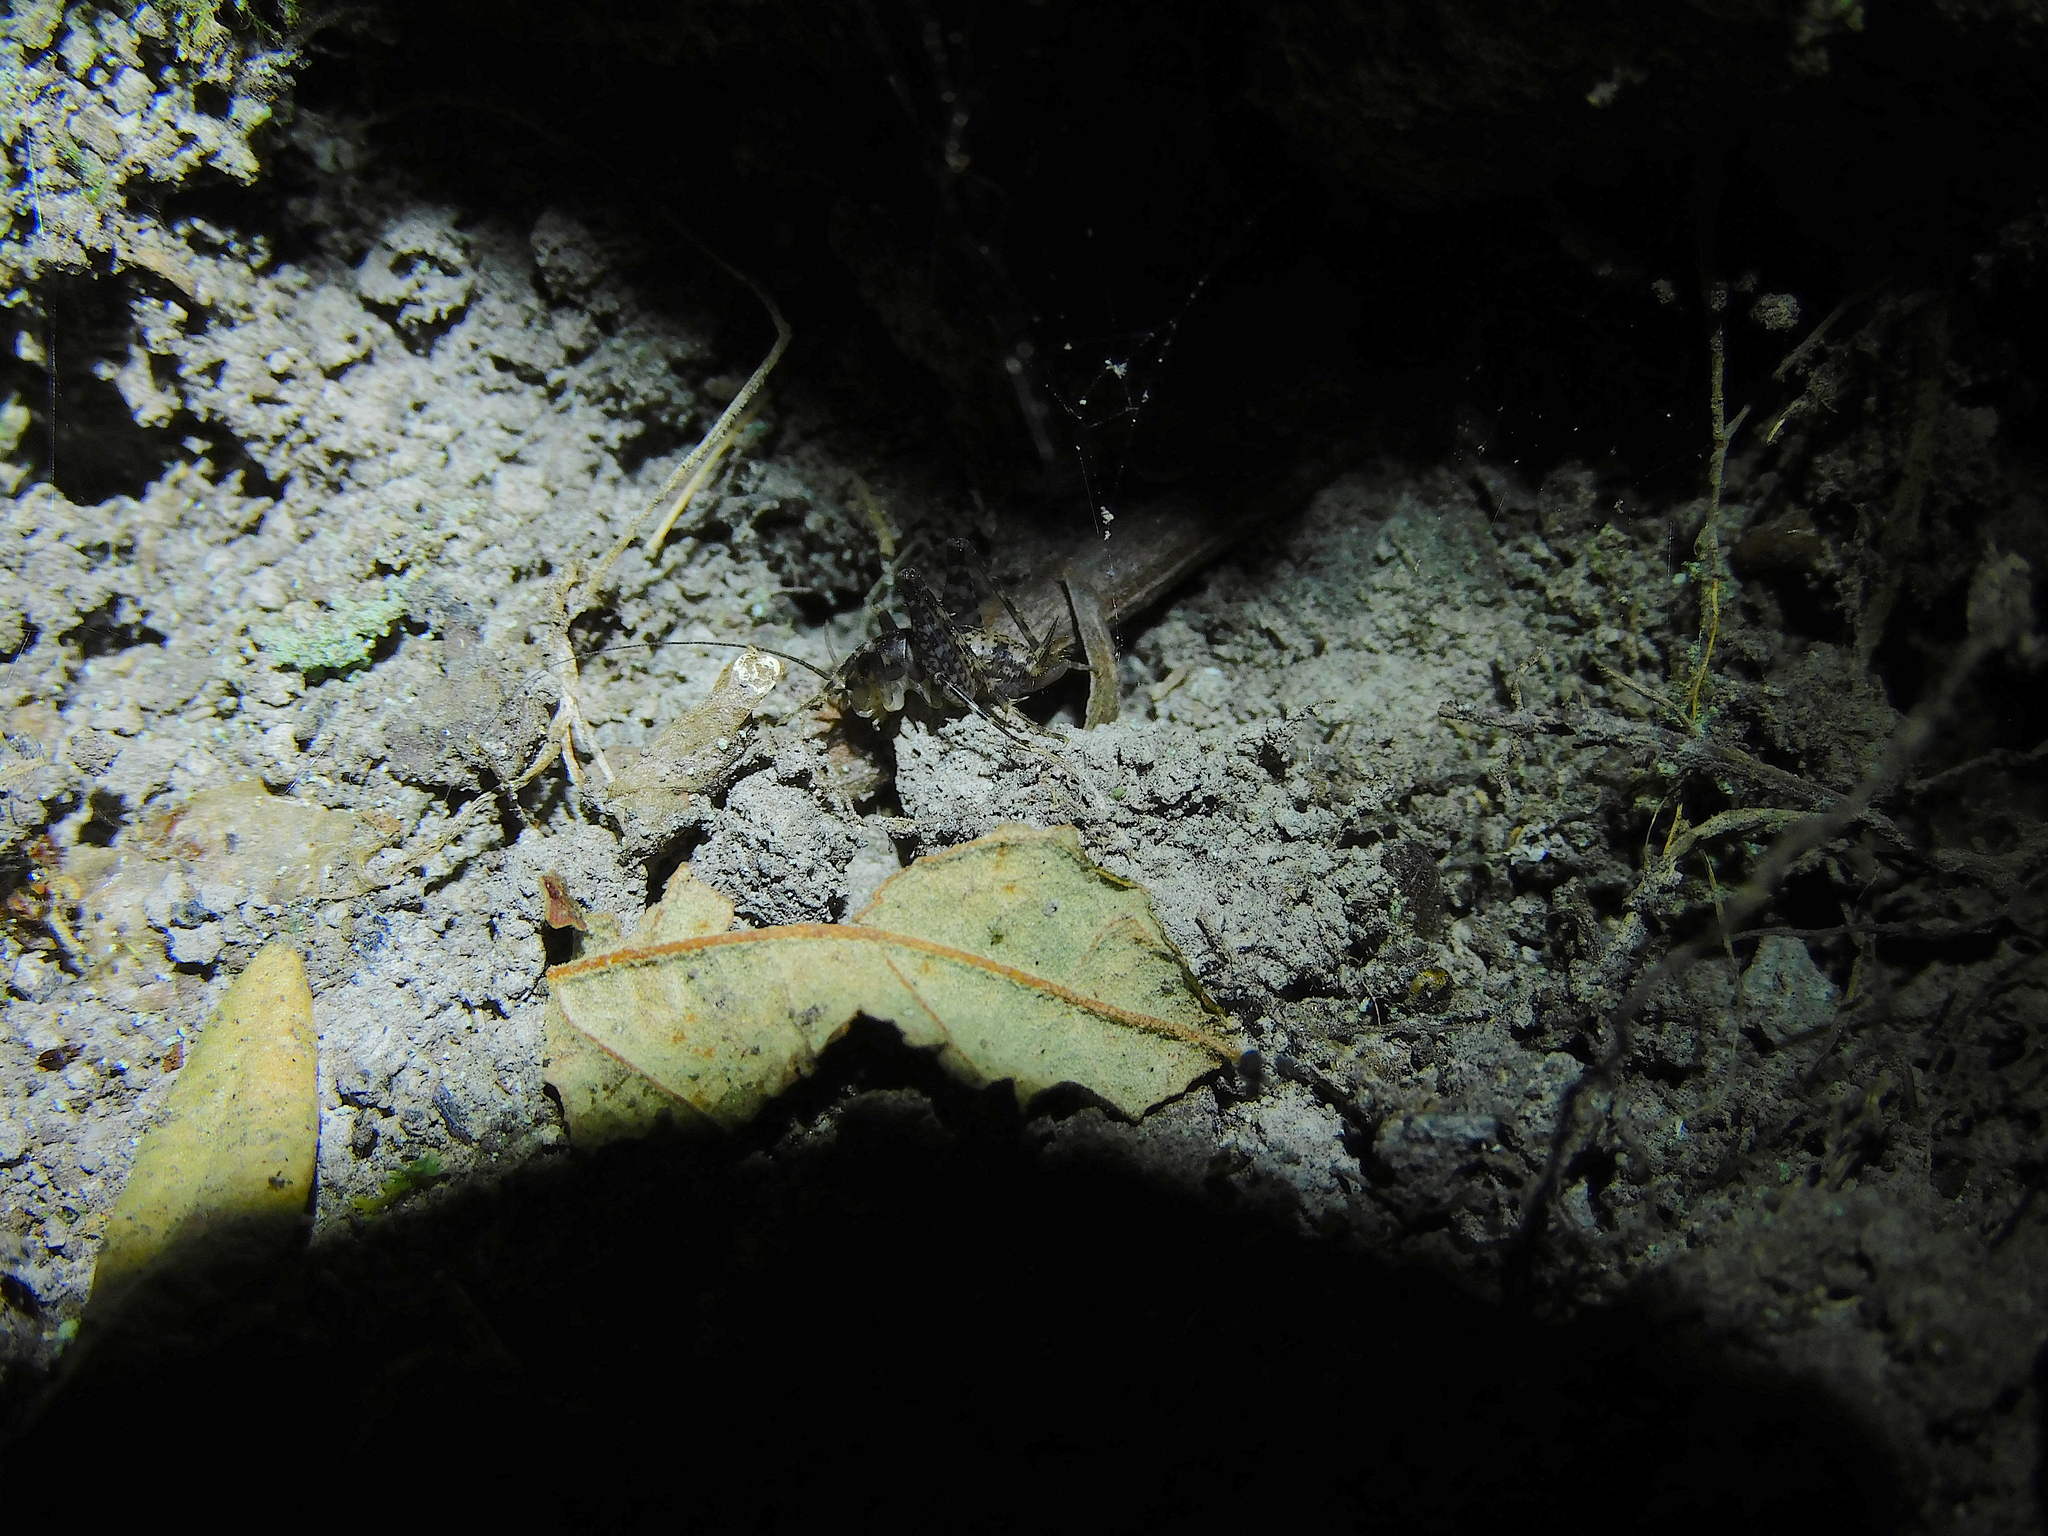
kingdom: Animalia
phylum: Arthropoda
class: Insecta
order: Orthoptera
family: Rhaphidophoridae
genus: Parvotettix
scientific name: Parvotettix domesticus
